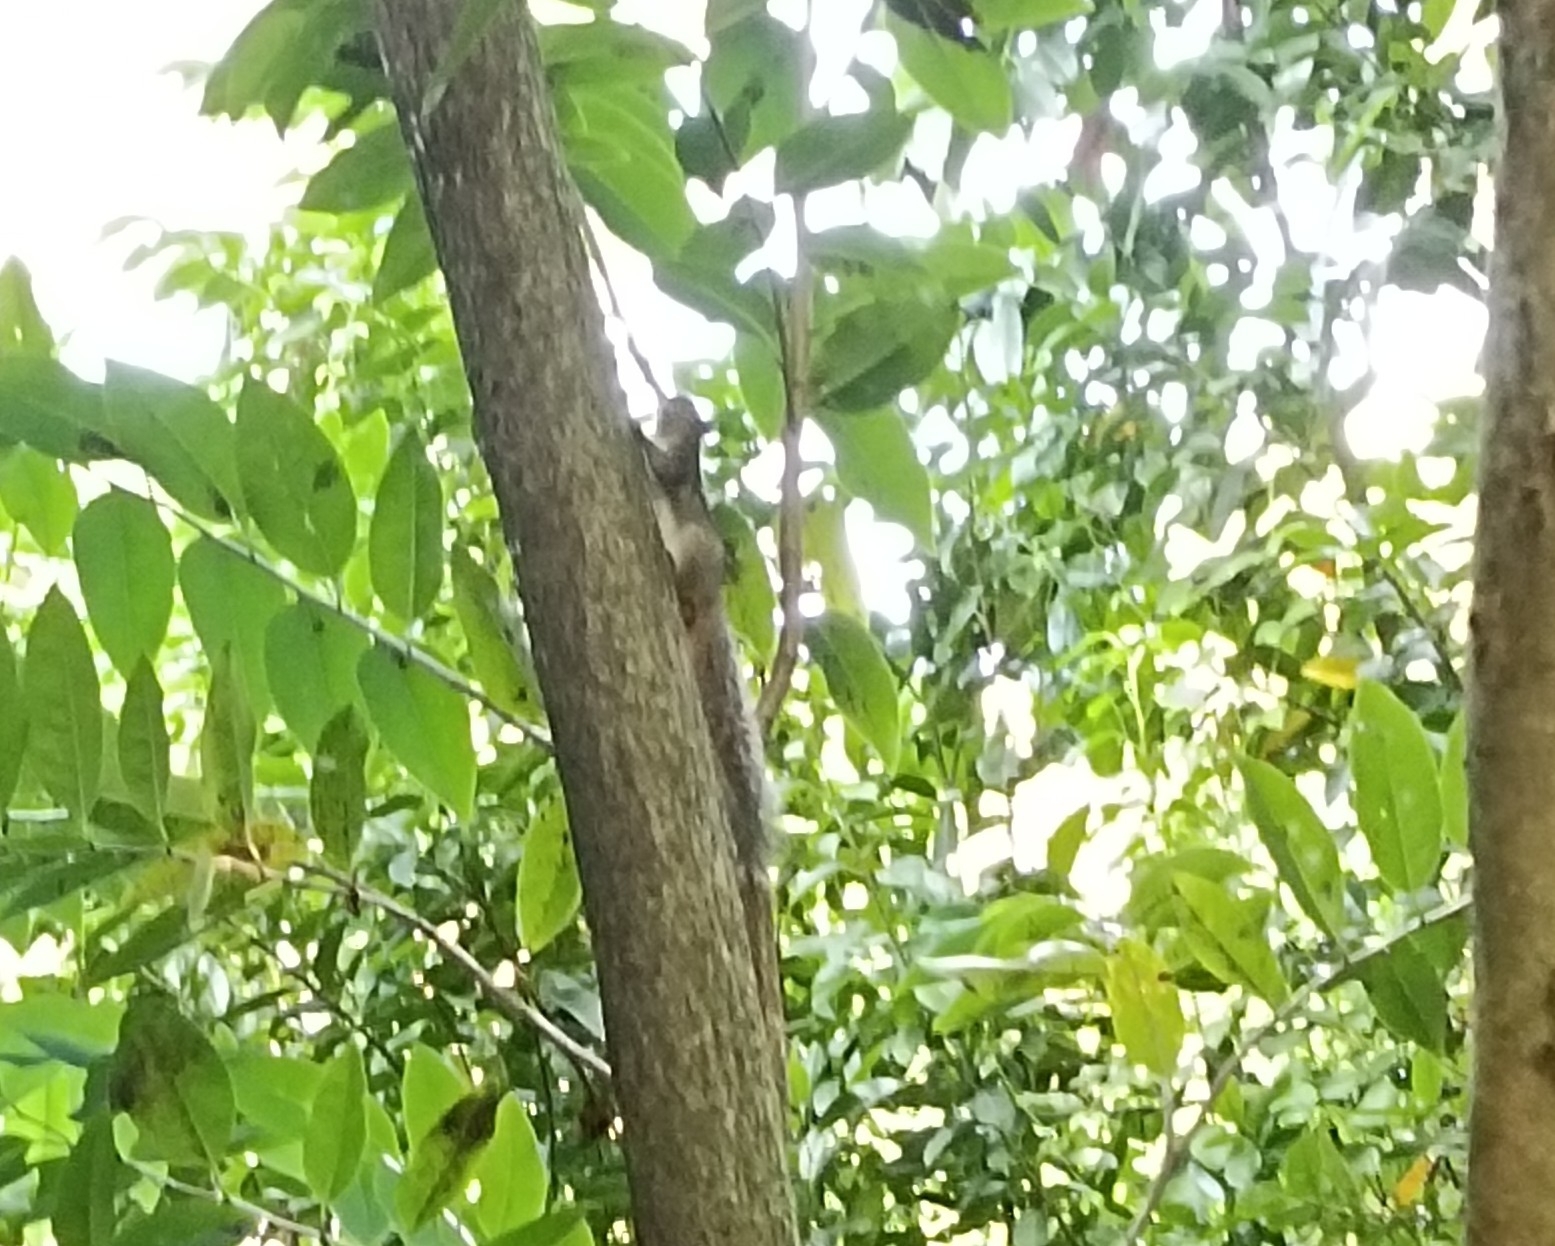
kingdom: Animalia
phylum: Chordata
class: Mammalia
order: Rodentia
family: Sciuridae
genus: Funambulus
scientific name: Funambulus tristriatus
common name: Jungle palm squirrel
